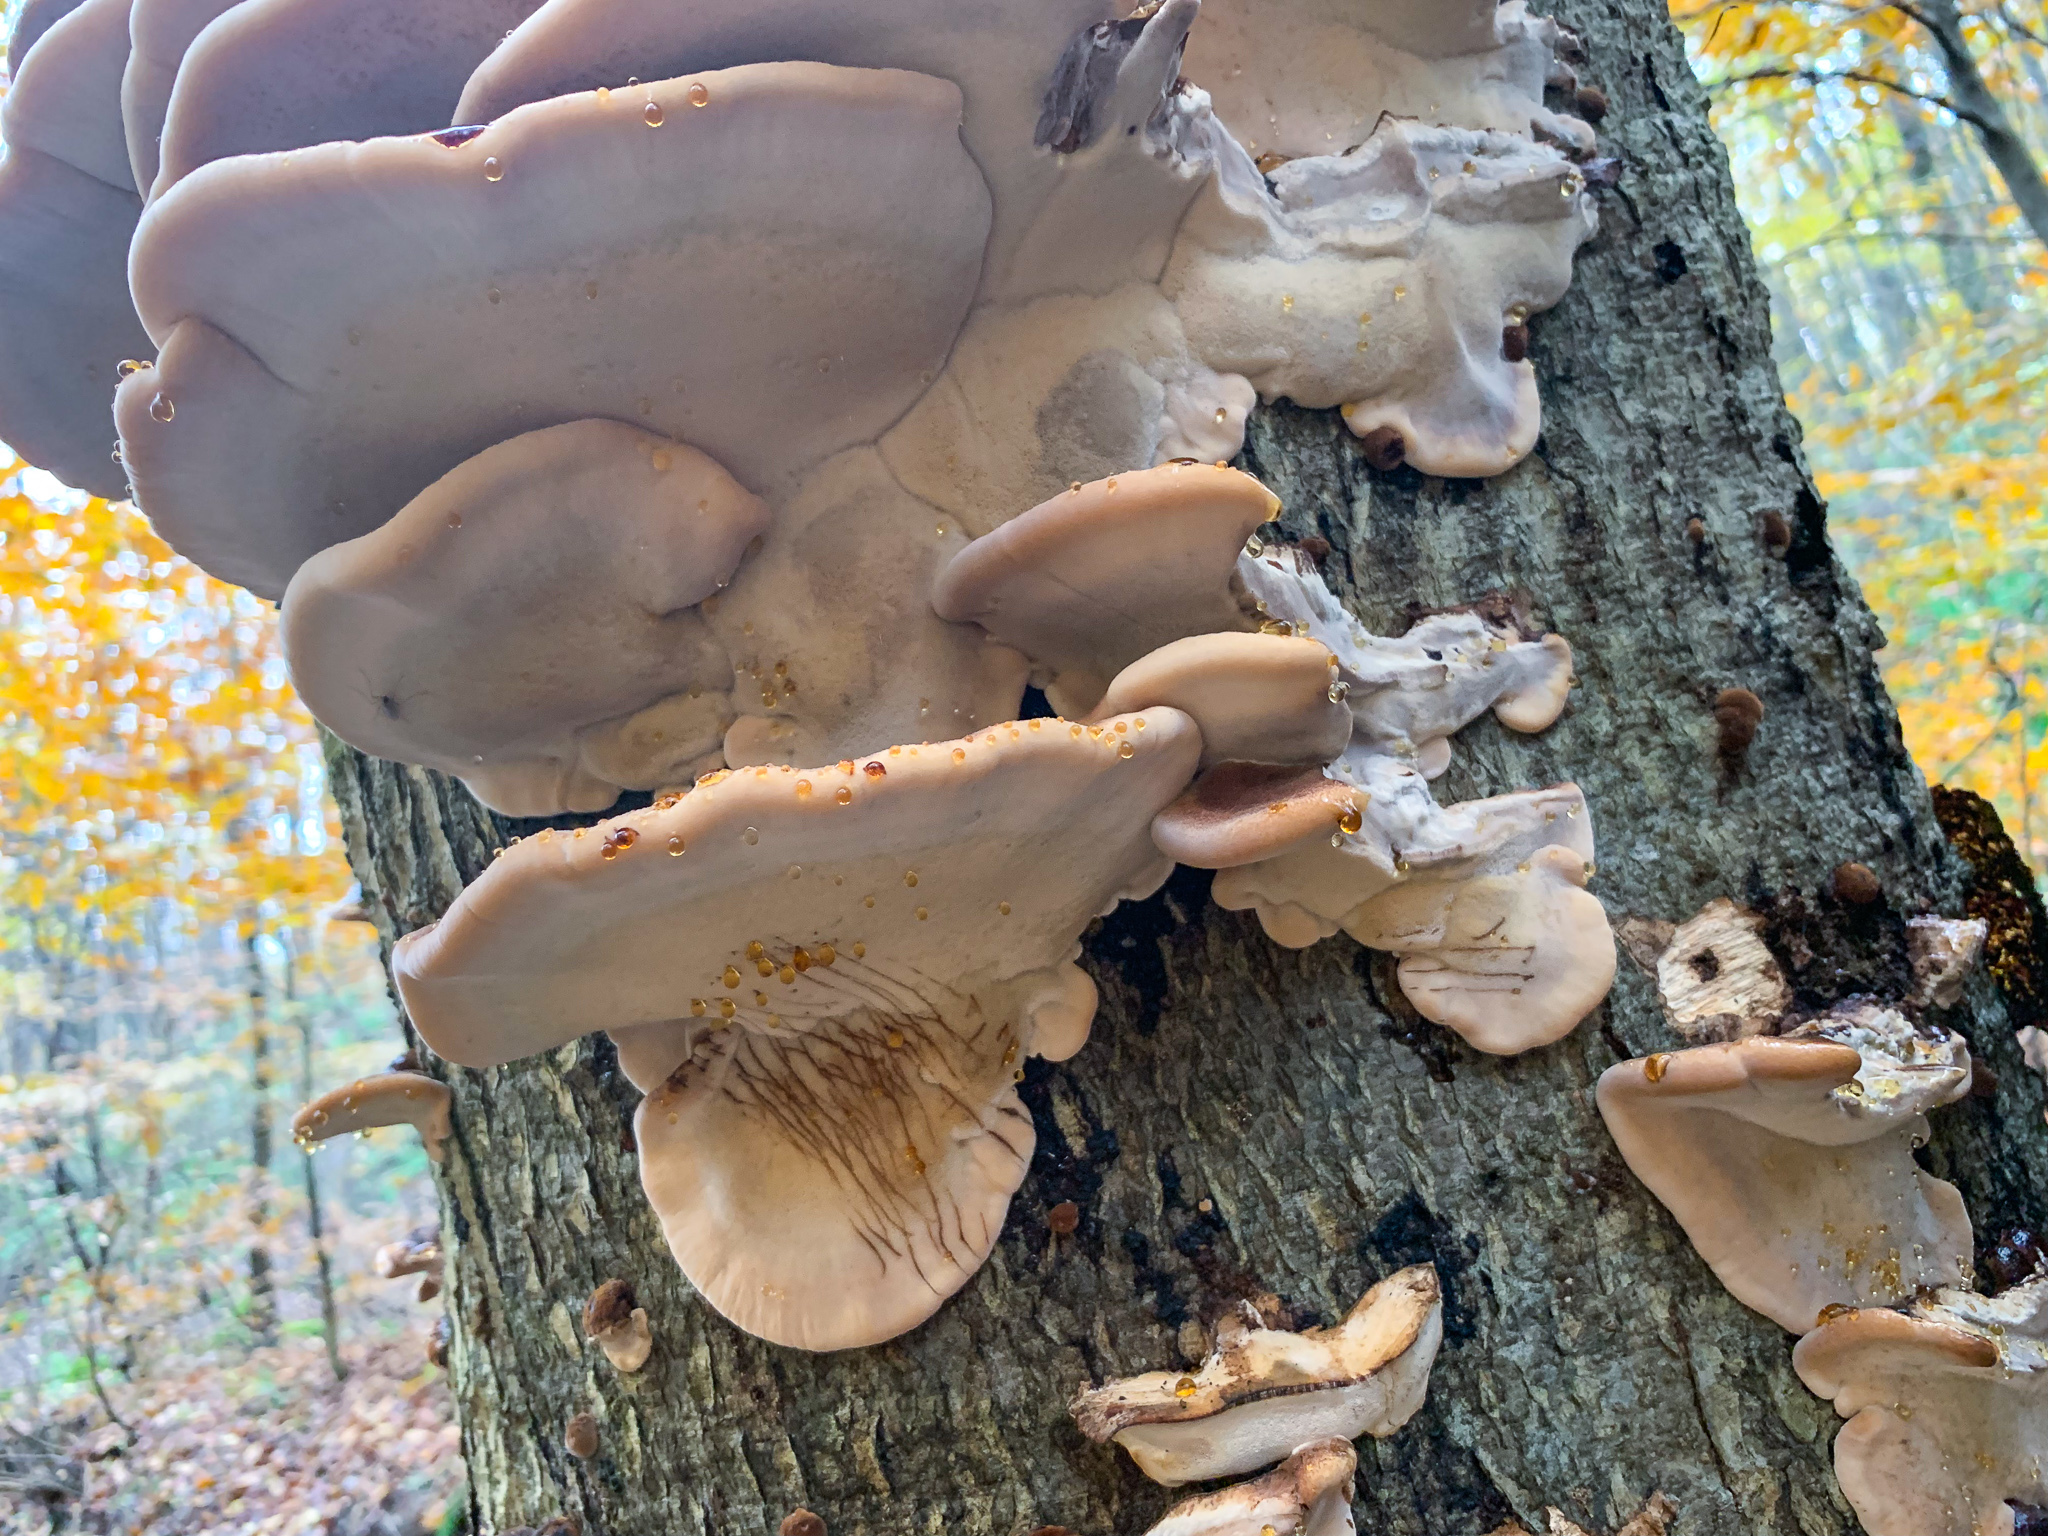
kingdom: Fungi
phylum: Basidiomycota
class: Agaricomycetes
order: Polyporales
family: Ischnodermataceae
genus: Ischnoderma
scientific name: Ischnoderma resinosum
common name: Resinous polypore
